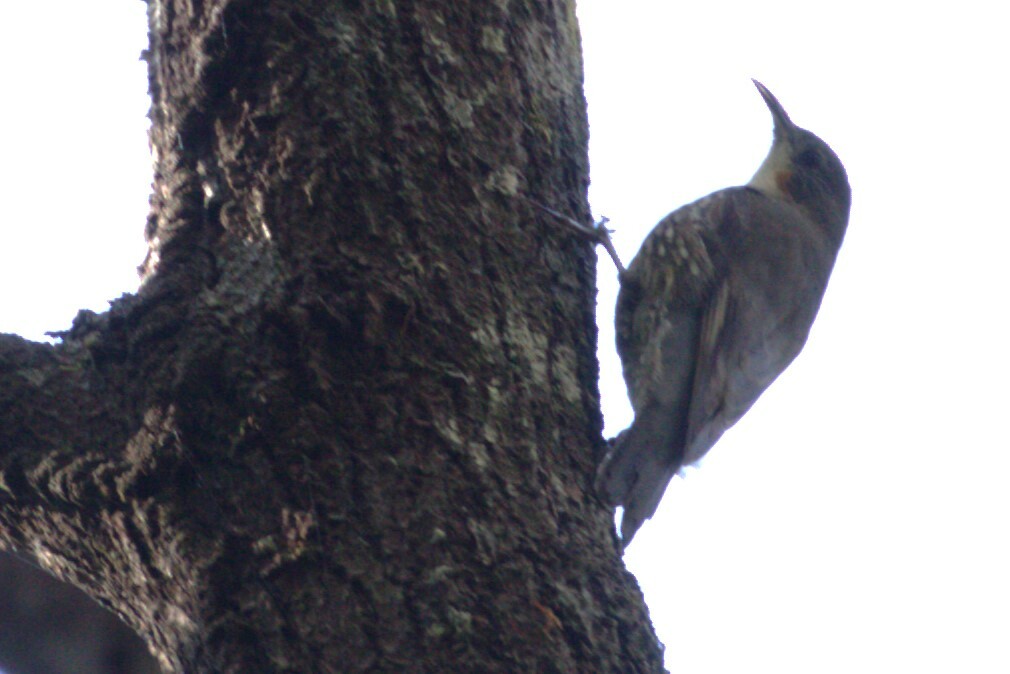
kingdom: Animalia
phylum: Chordata
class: Aves
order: Passeriformes
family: Climacteridae
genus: Cormobates
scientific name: Cormobates leucophaea
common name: White-throated treecreeper
